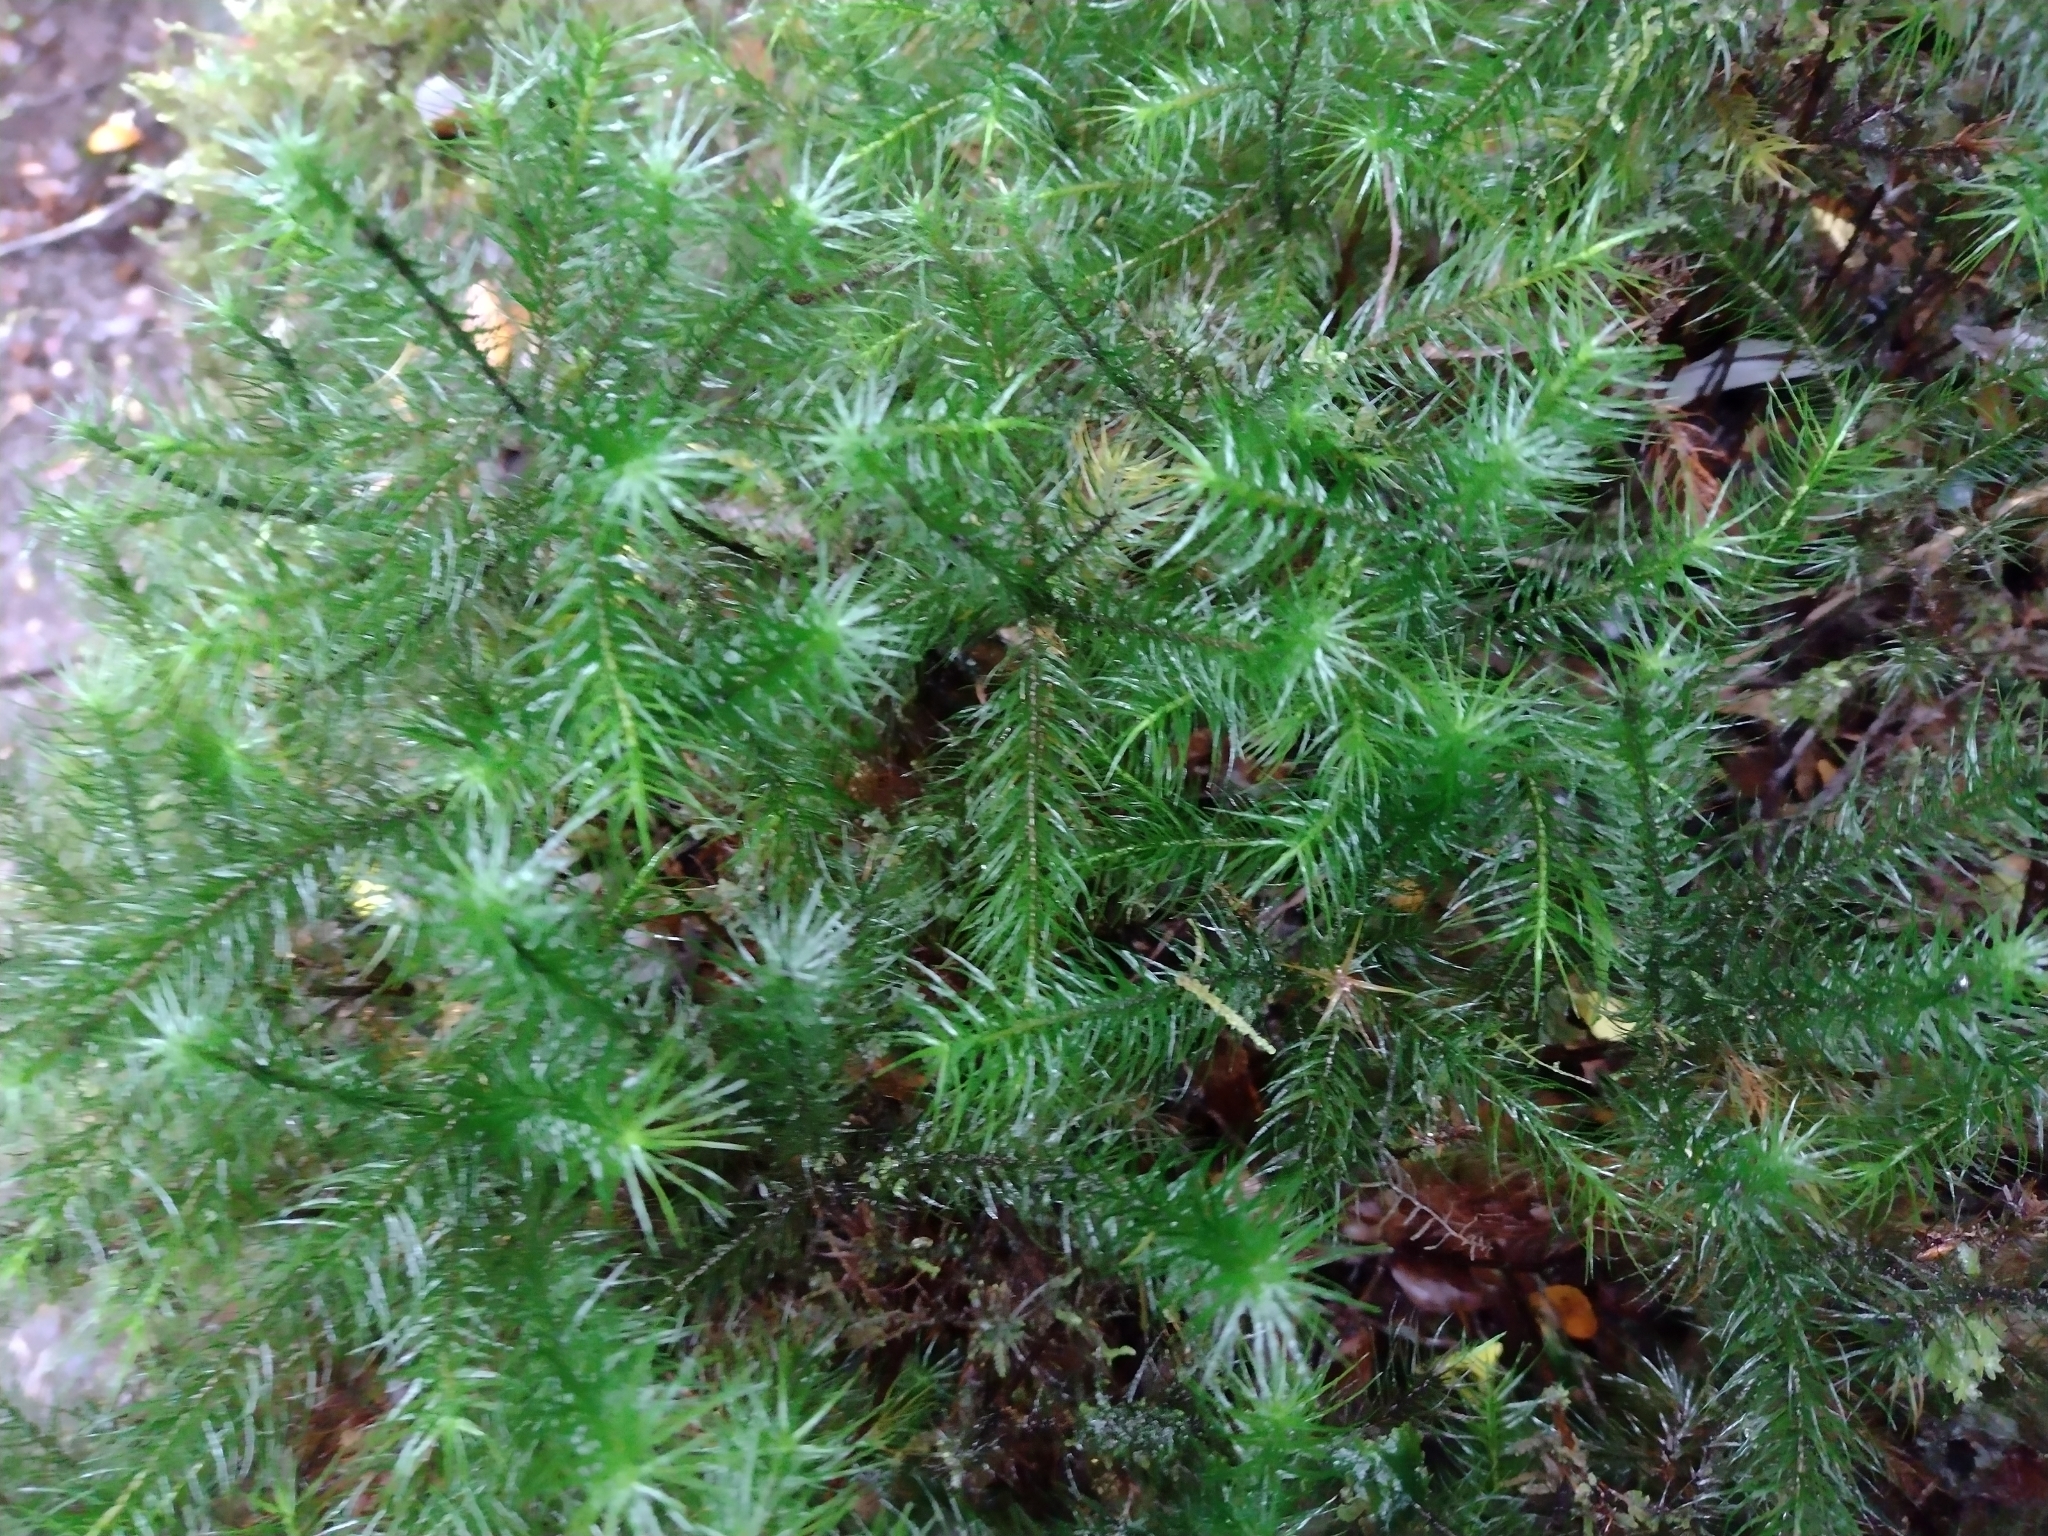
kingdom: Plantae
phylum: Bryophyta
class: Polytrichopsida
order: Polytrichales
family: Polytrichaceae
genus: Dendroligotrichum
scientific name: Dendroligotrichum dendroides
